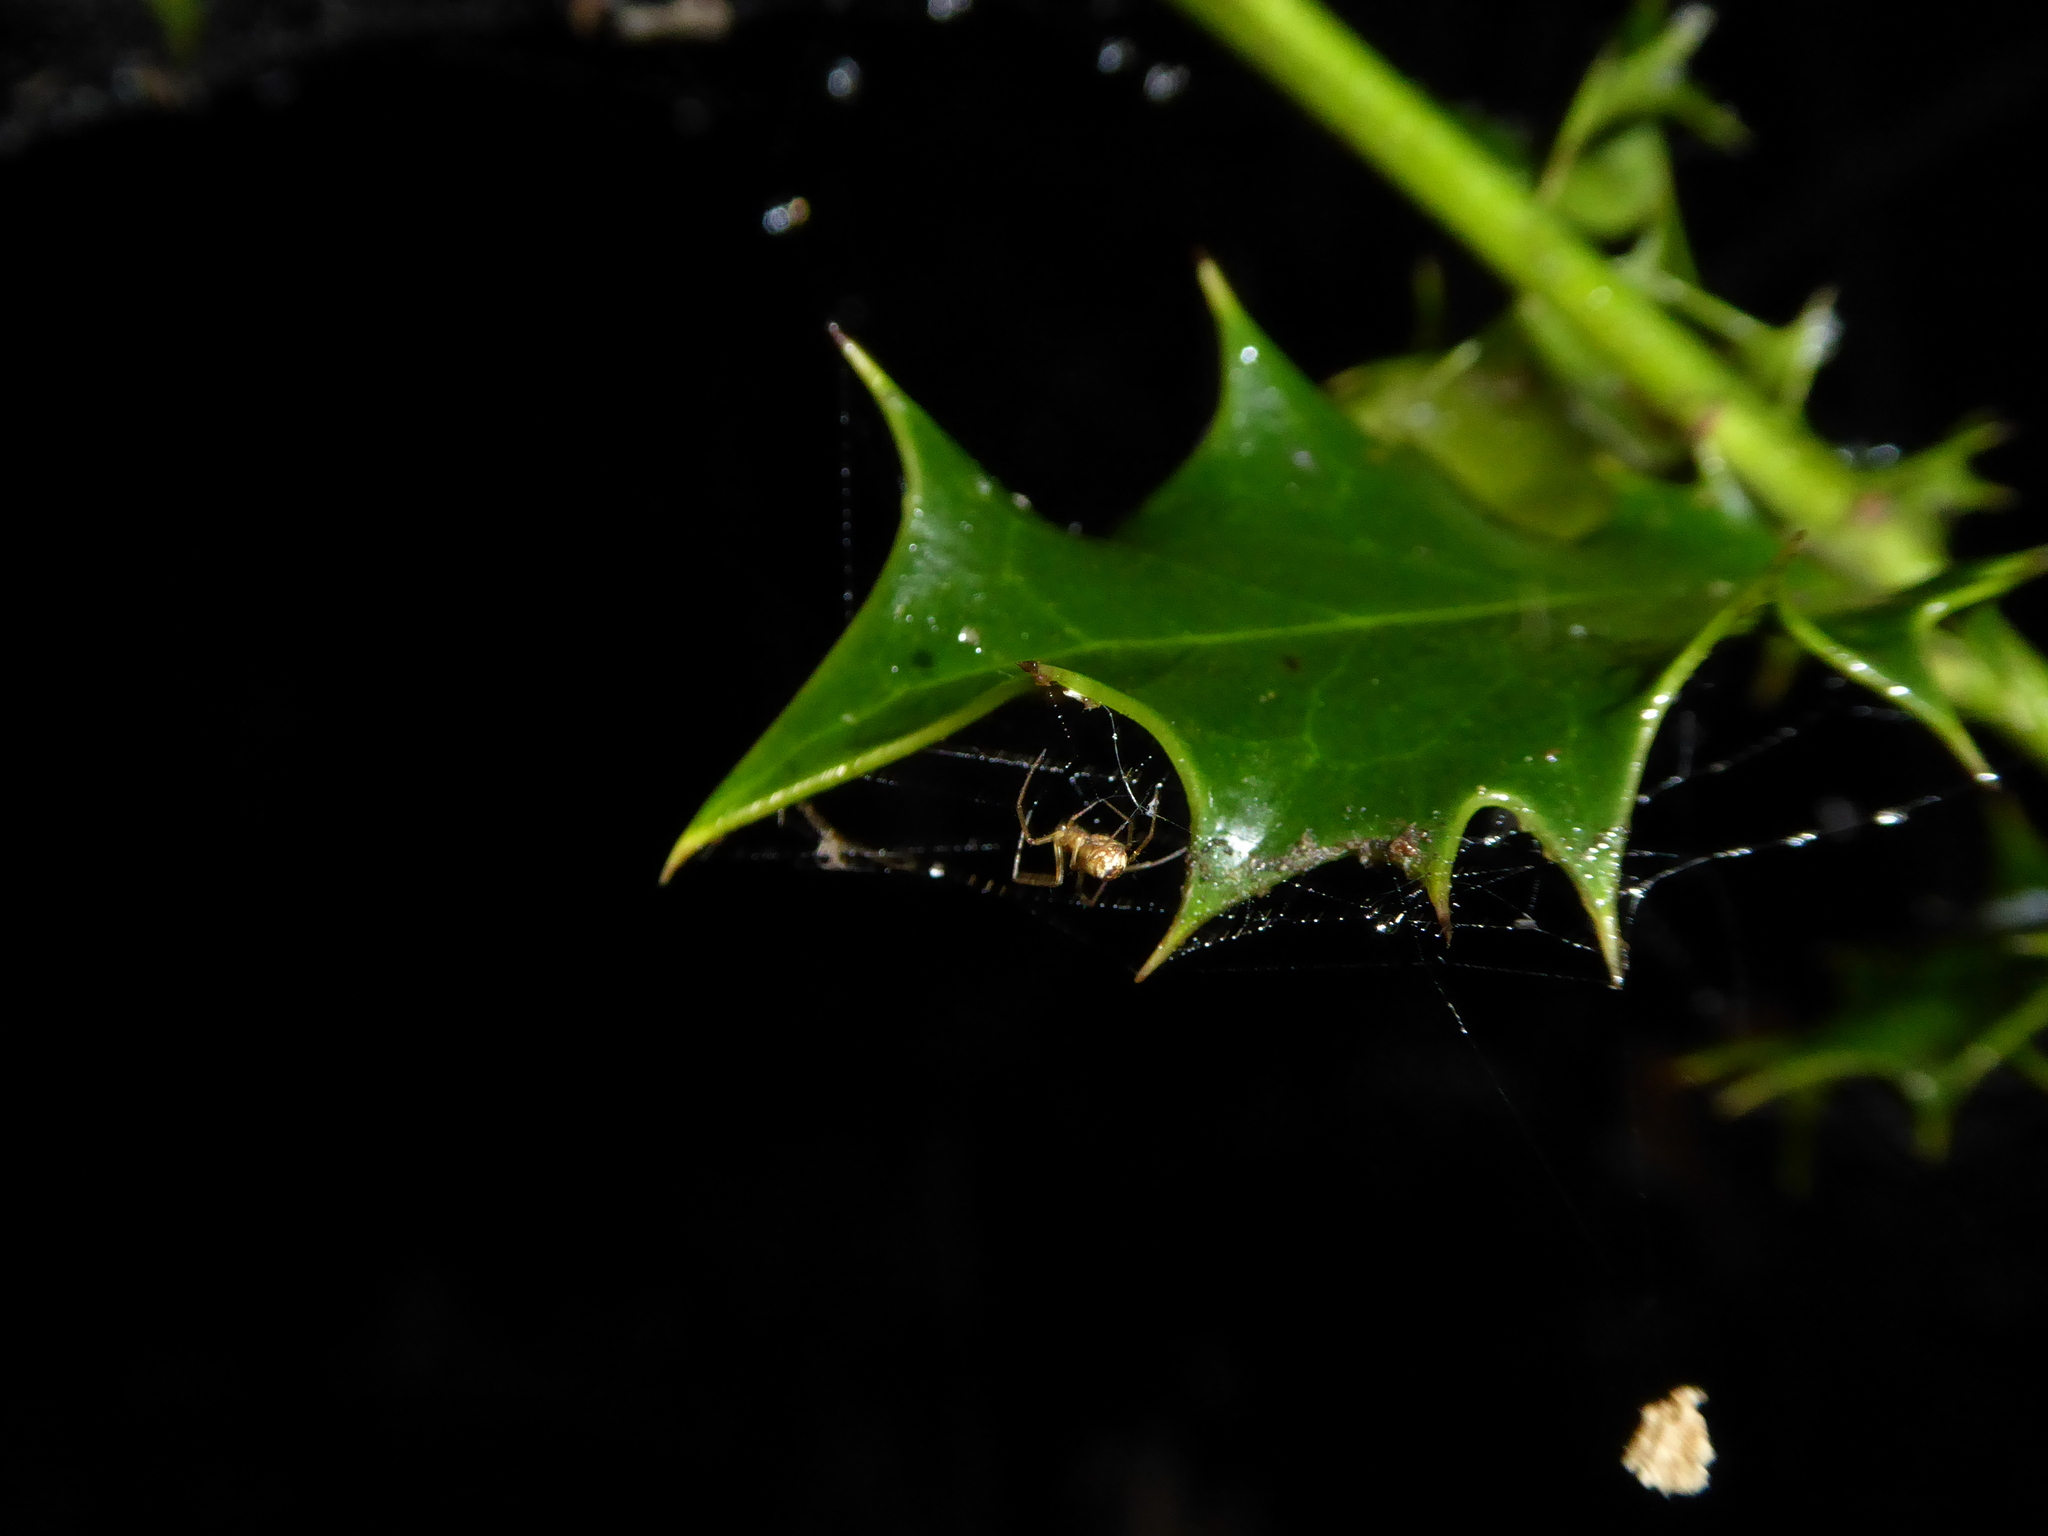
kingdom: Animalia
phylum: Arthropoda
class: Arachnida
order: Araneae
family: Linyphiidae
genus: Neriene
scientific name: Neriene peltata
